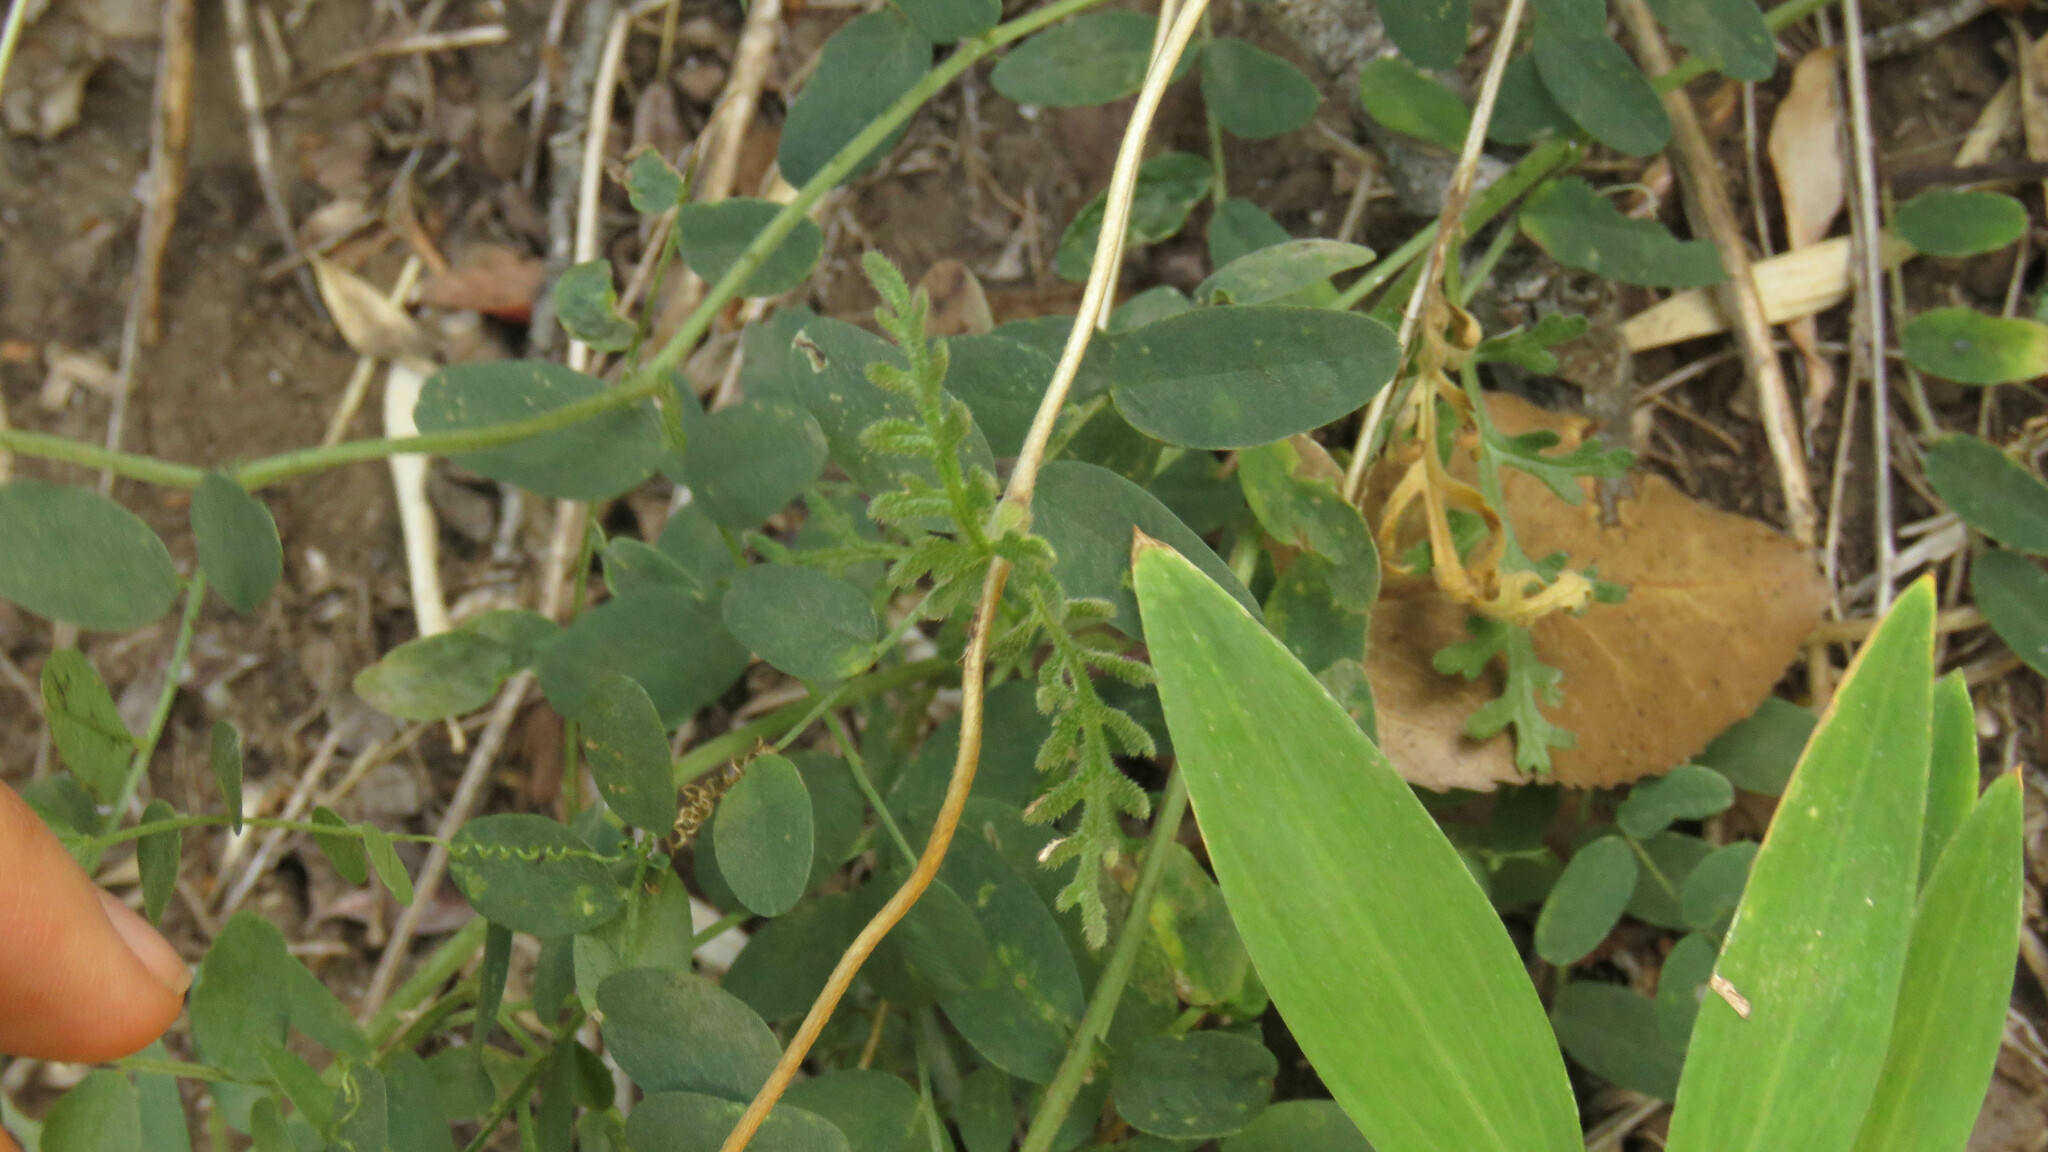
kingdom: Plantae
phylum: Tracheophyta
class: Magnoliopsida
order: Cornales
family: Loasaceae
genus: Pinnasa
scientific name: Pinnasa bergii
